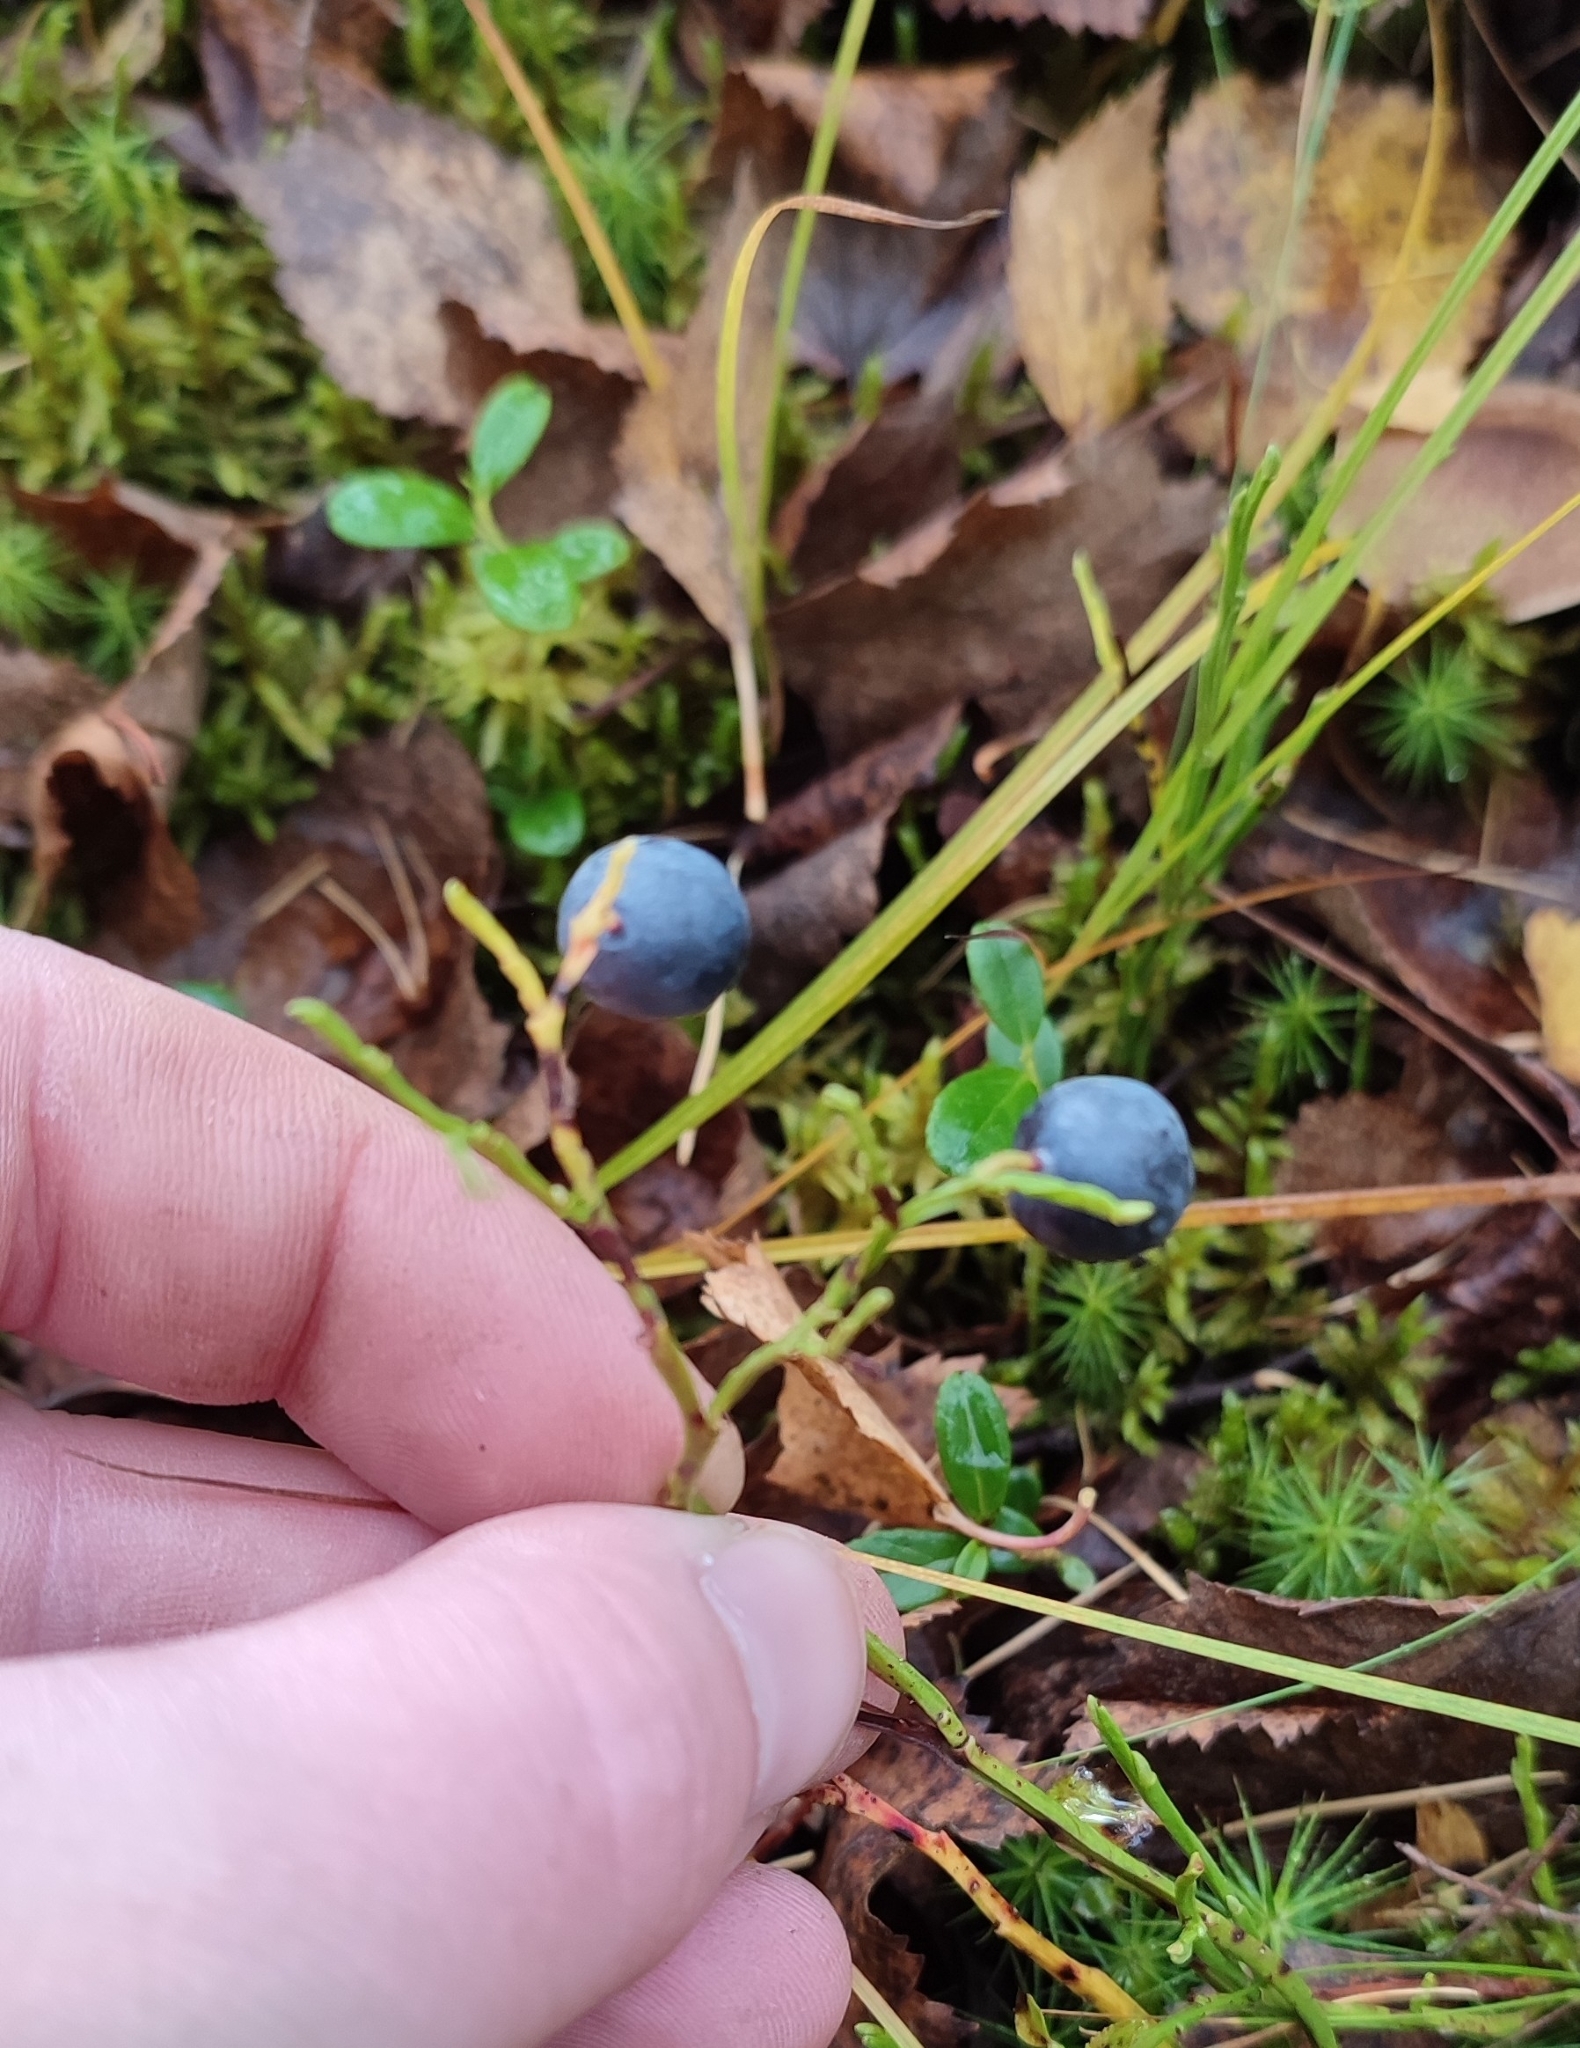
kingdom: Plantae
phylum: Tracheophyta
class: Magnoliopsida
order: Ericales
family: Ericaceae
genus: Vaccinium
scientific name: Vaccinium myrtillus
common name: Bilberry
